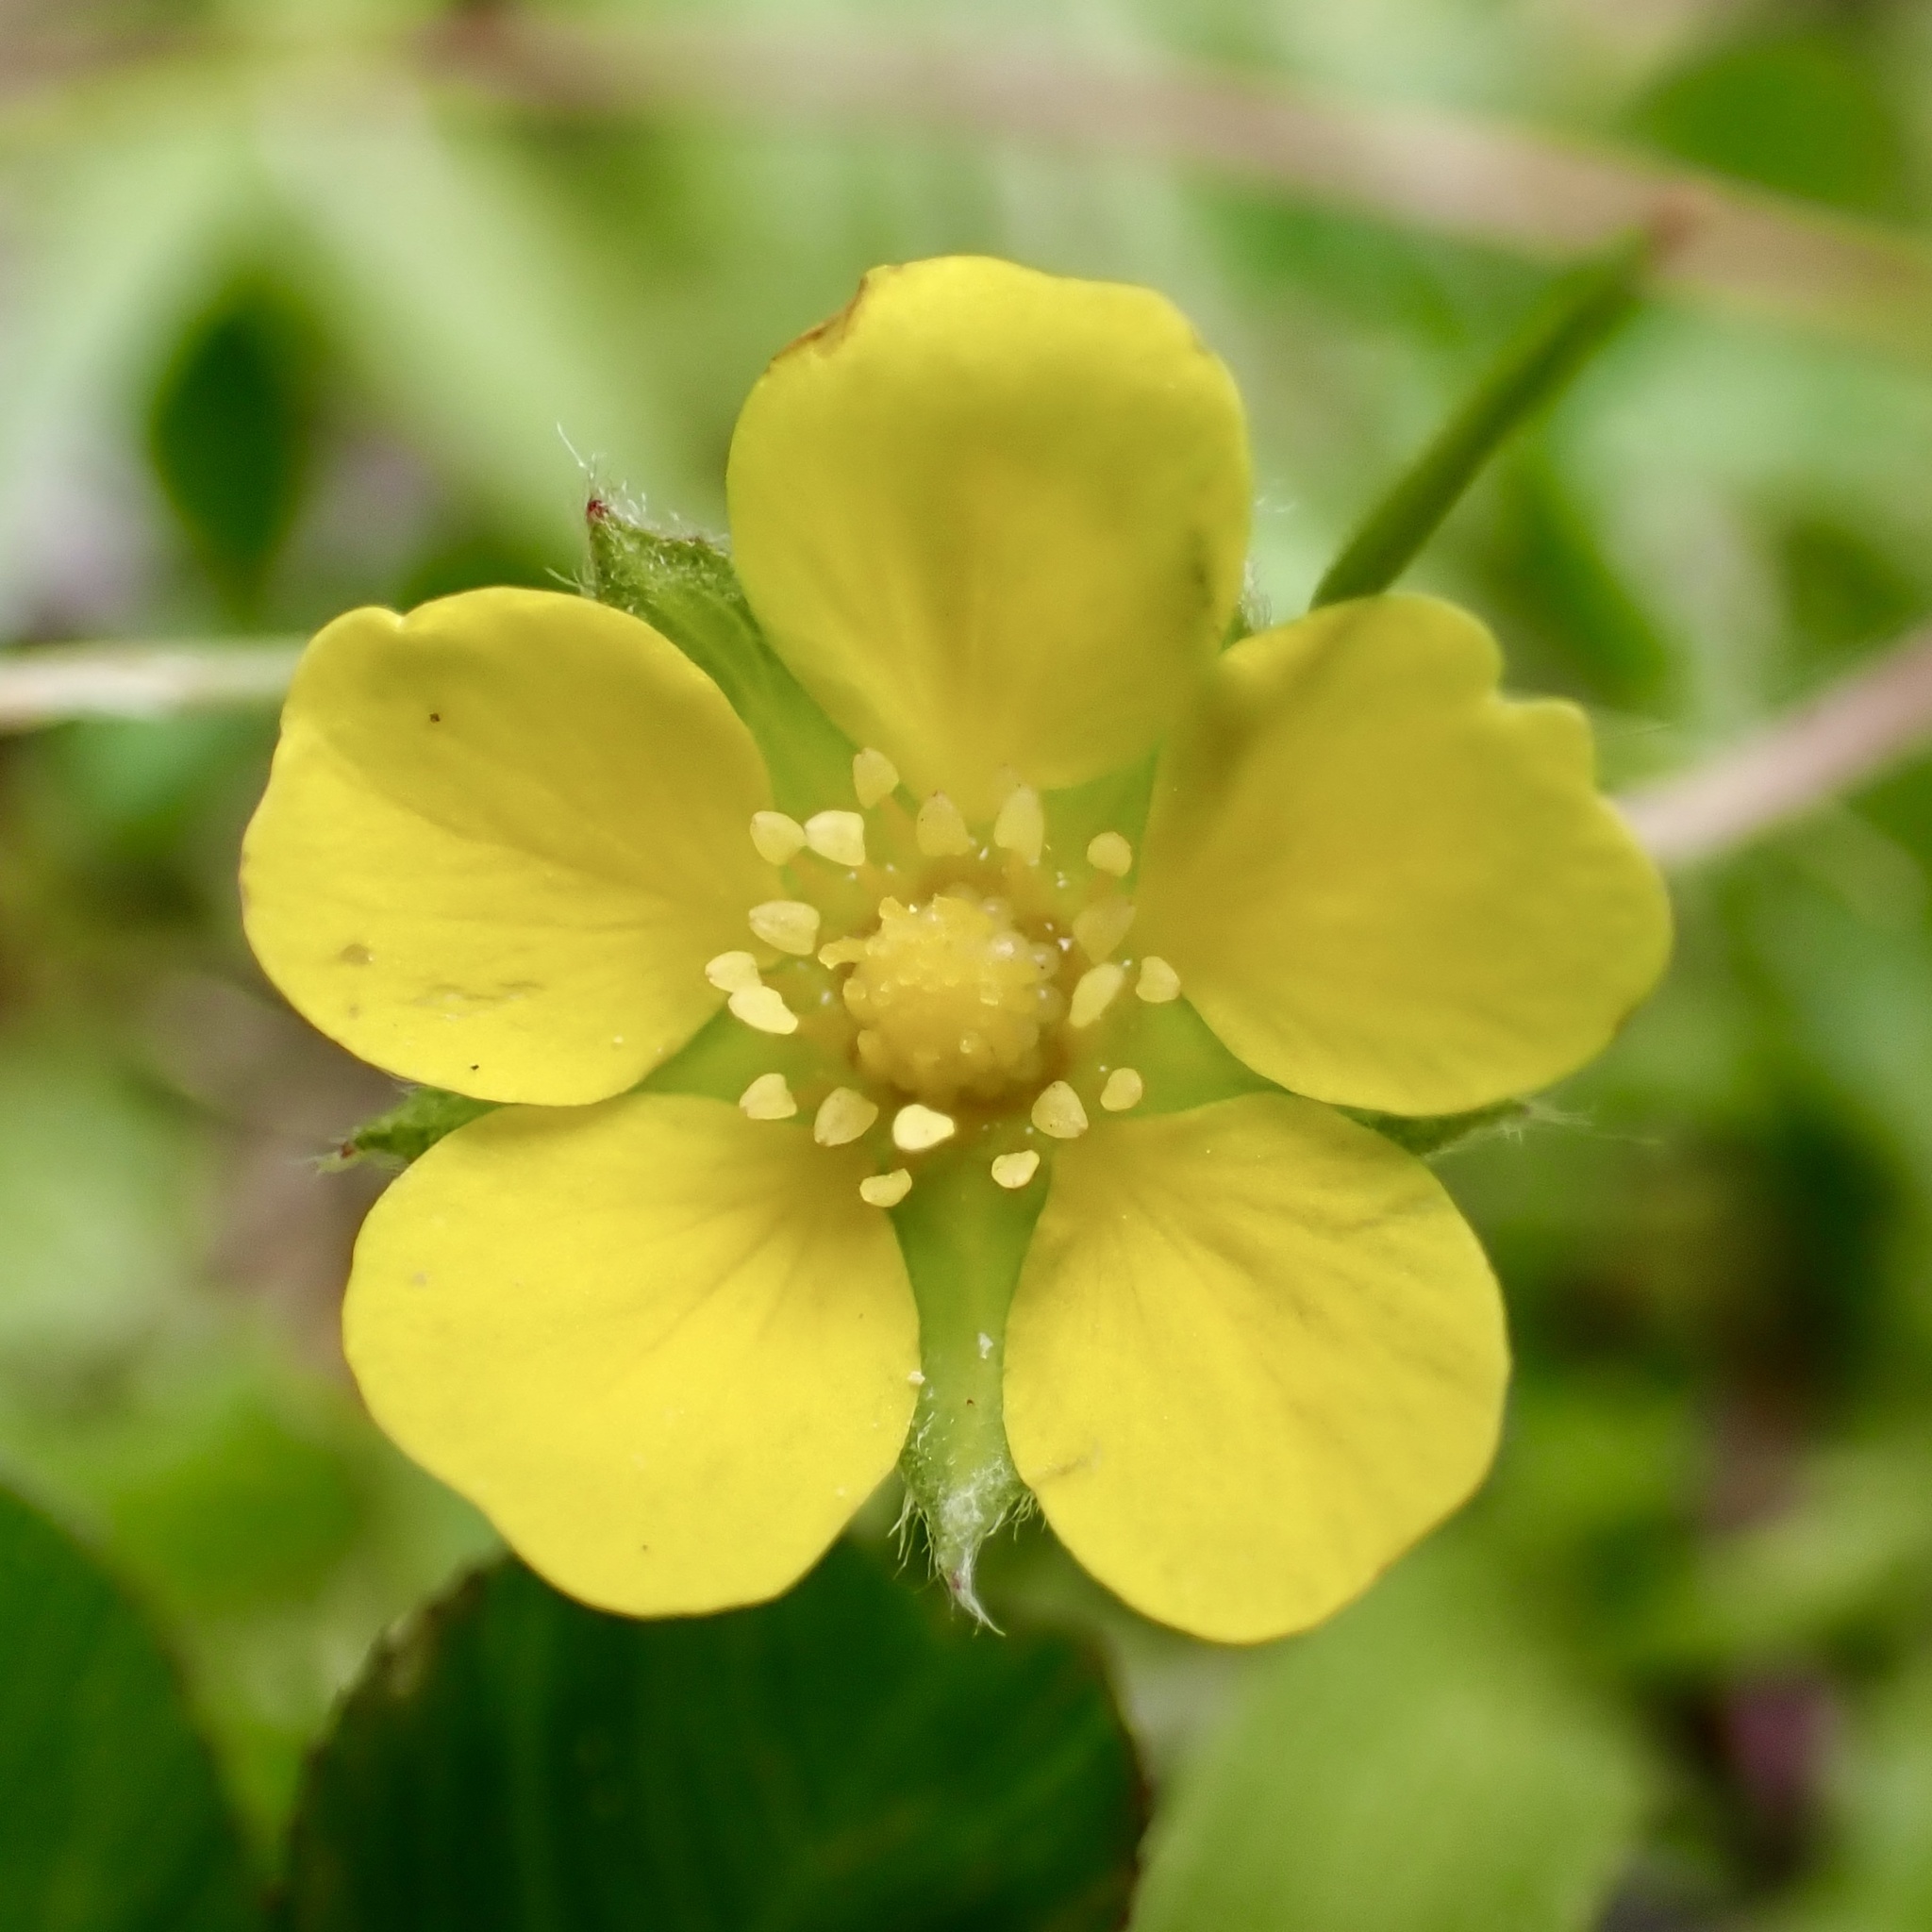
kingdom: Plantae
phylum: Tracheophyta
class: Magnoliopsida
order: Rosales
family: Rosaceae
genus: Potentilla
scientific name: Potentilla canadensis
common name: Canada cinquefoil
